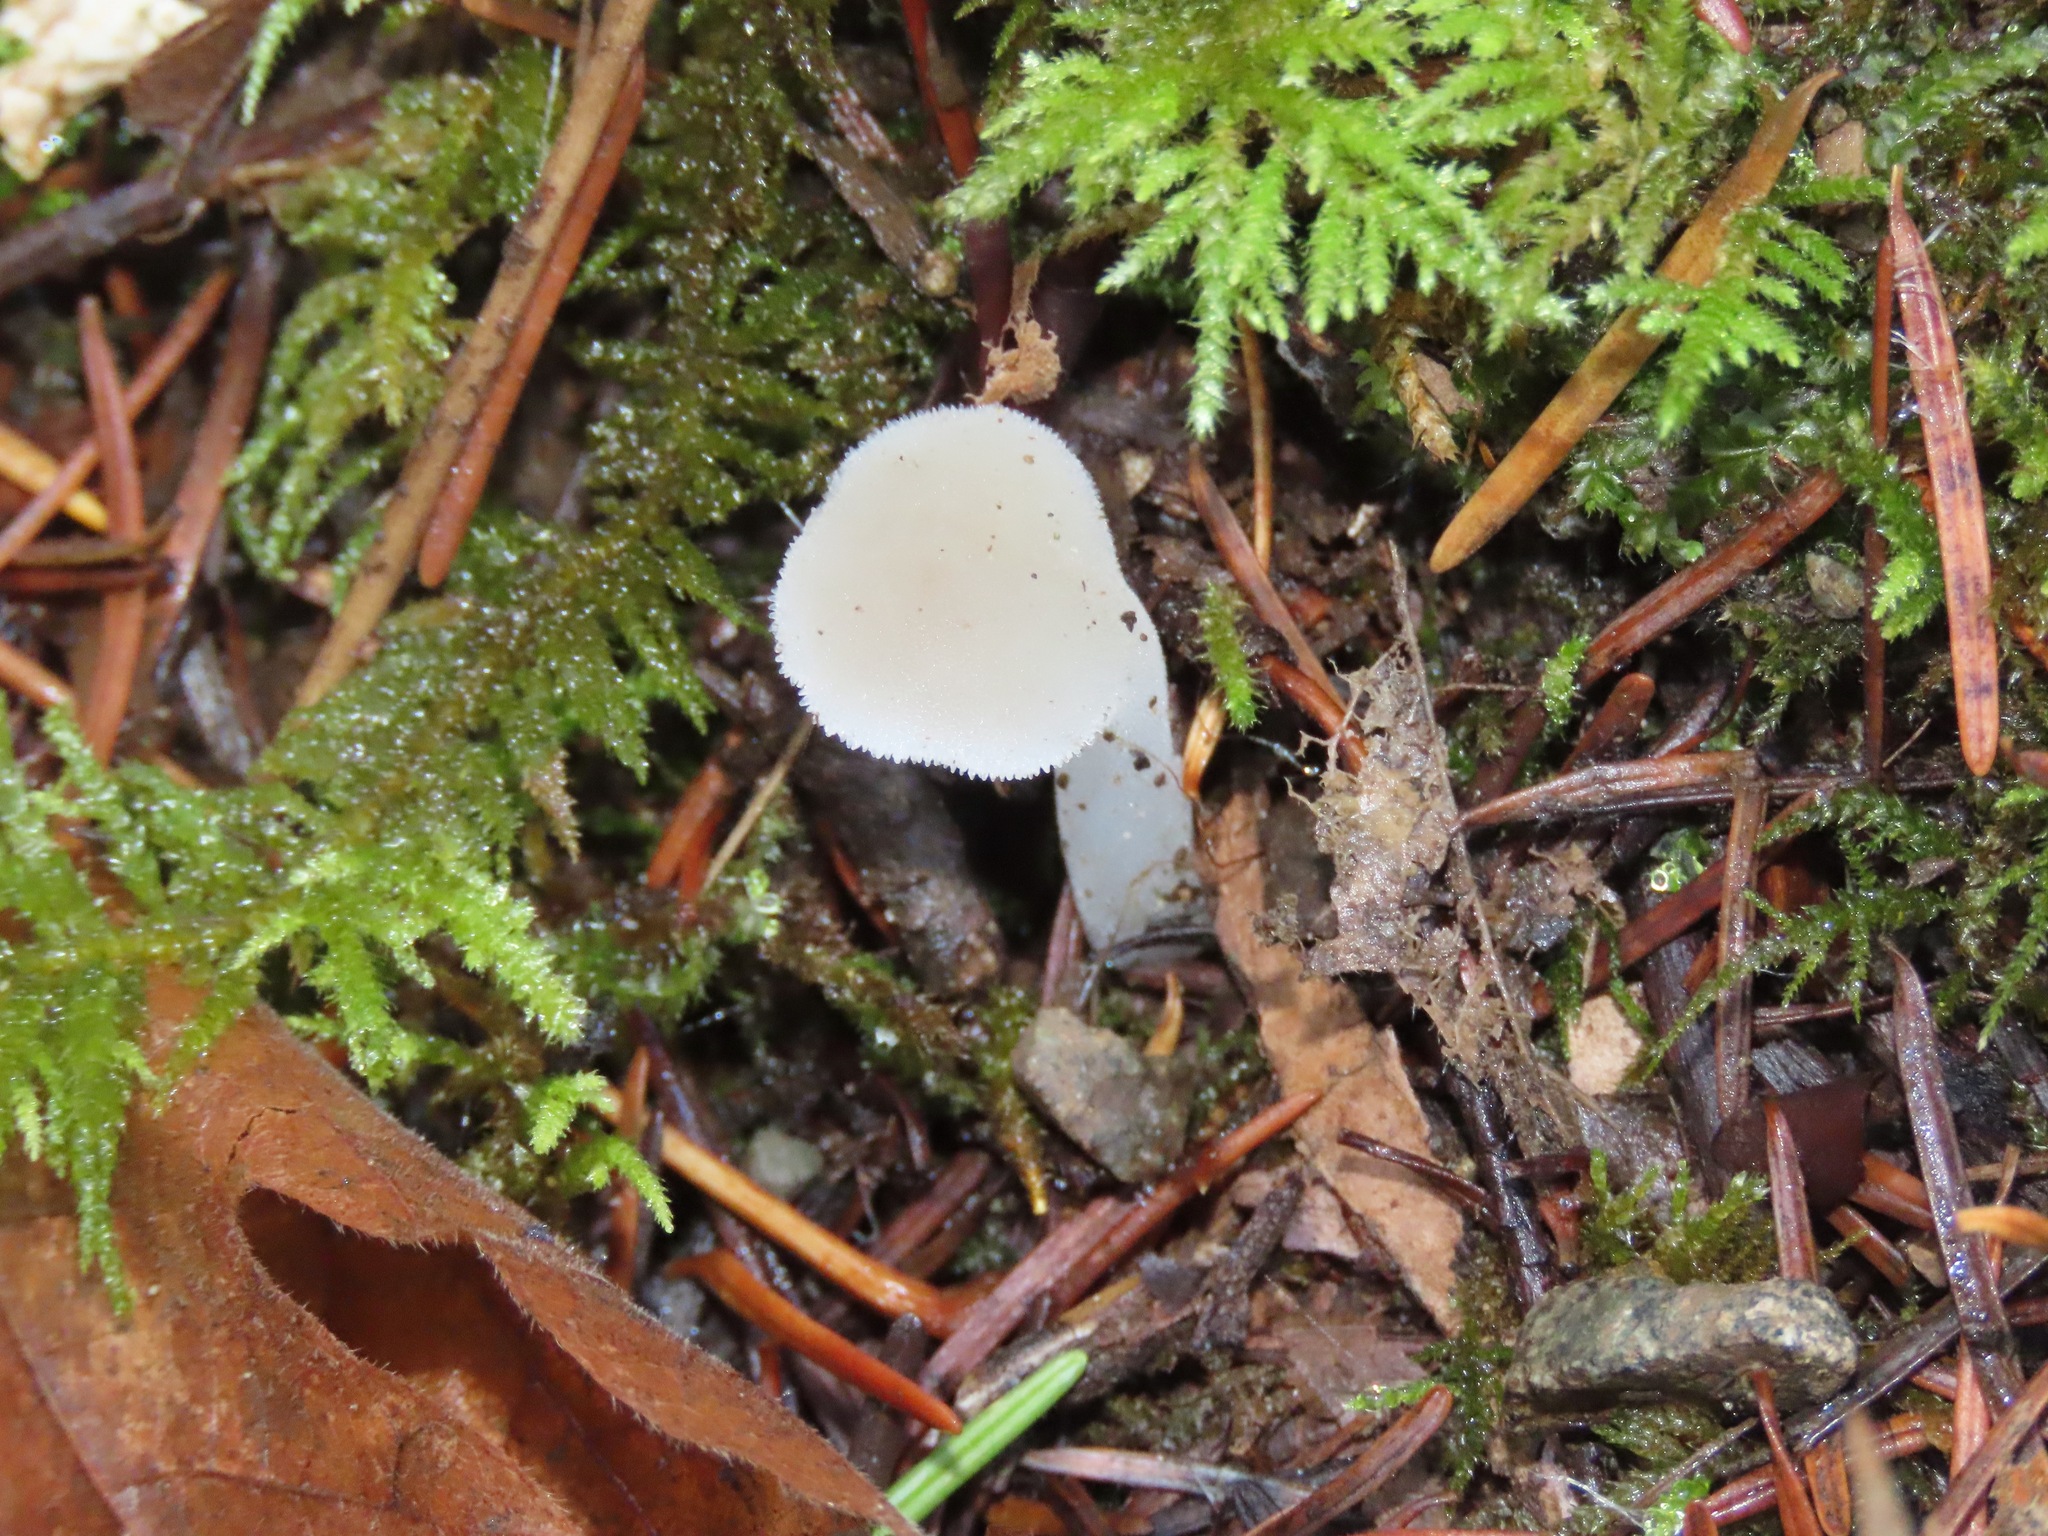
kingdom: Fungi
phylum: Basidiomycota
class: Agaricomycetes
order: Auriculariales
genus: Pseudohydnum
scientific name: Pseudohydnum gelatinosum
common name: Jelly tongue
